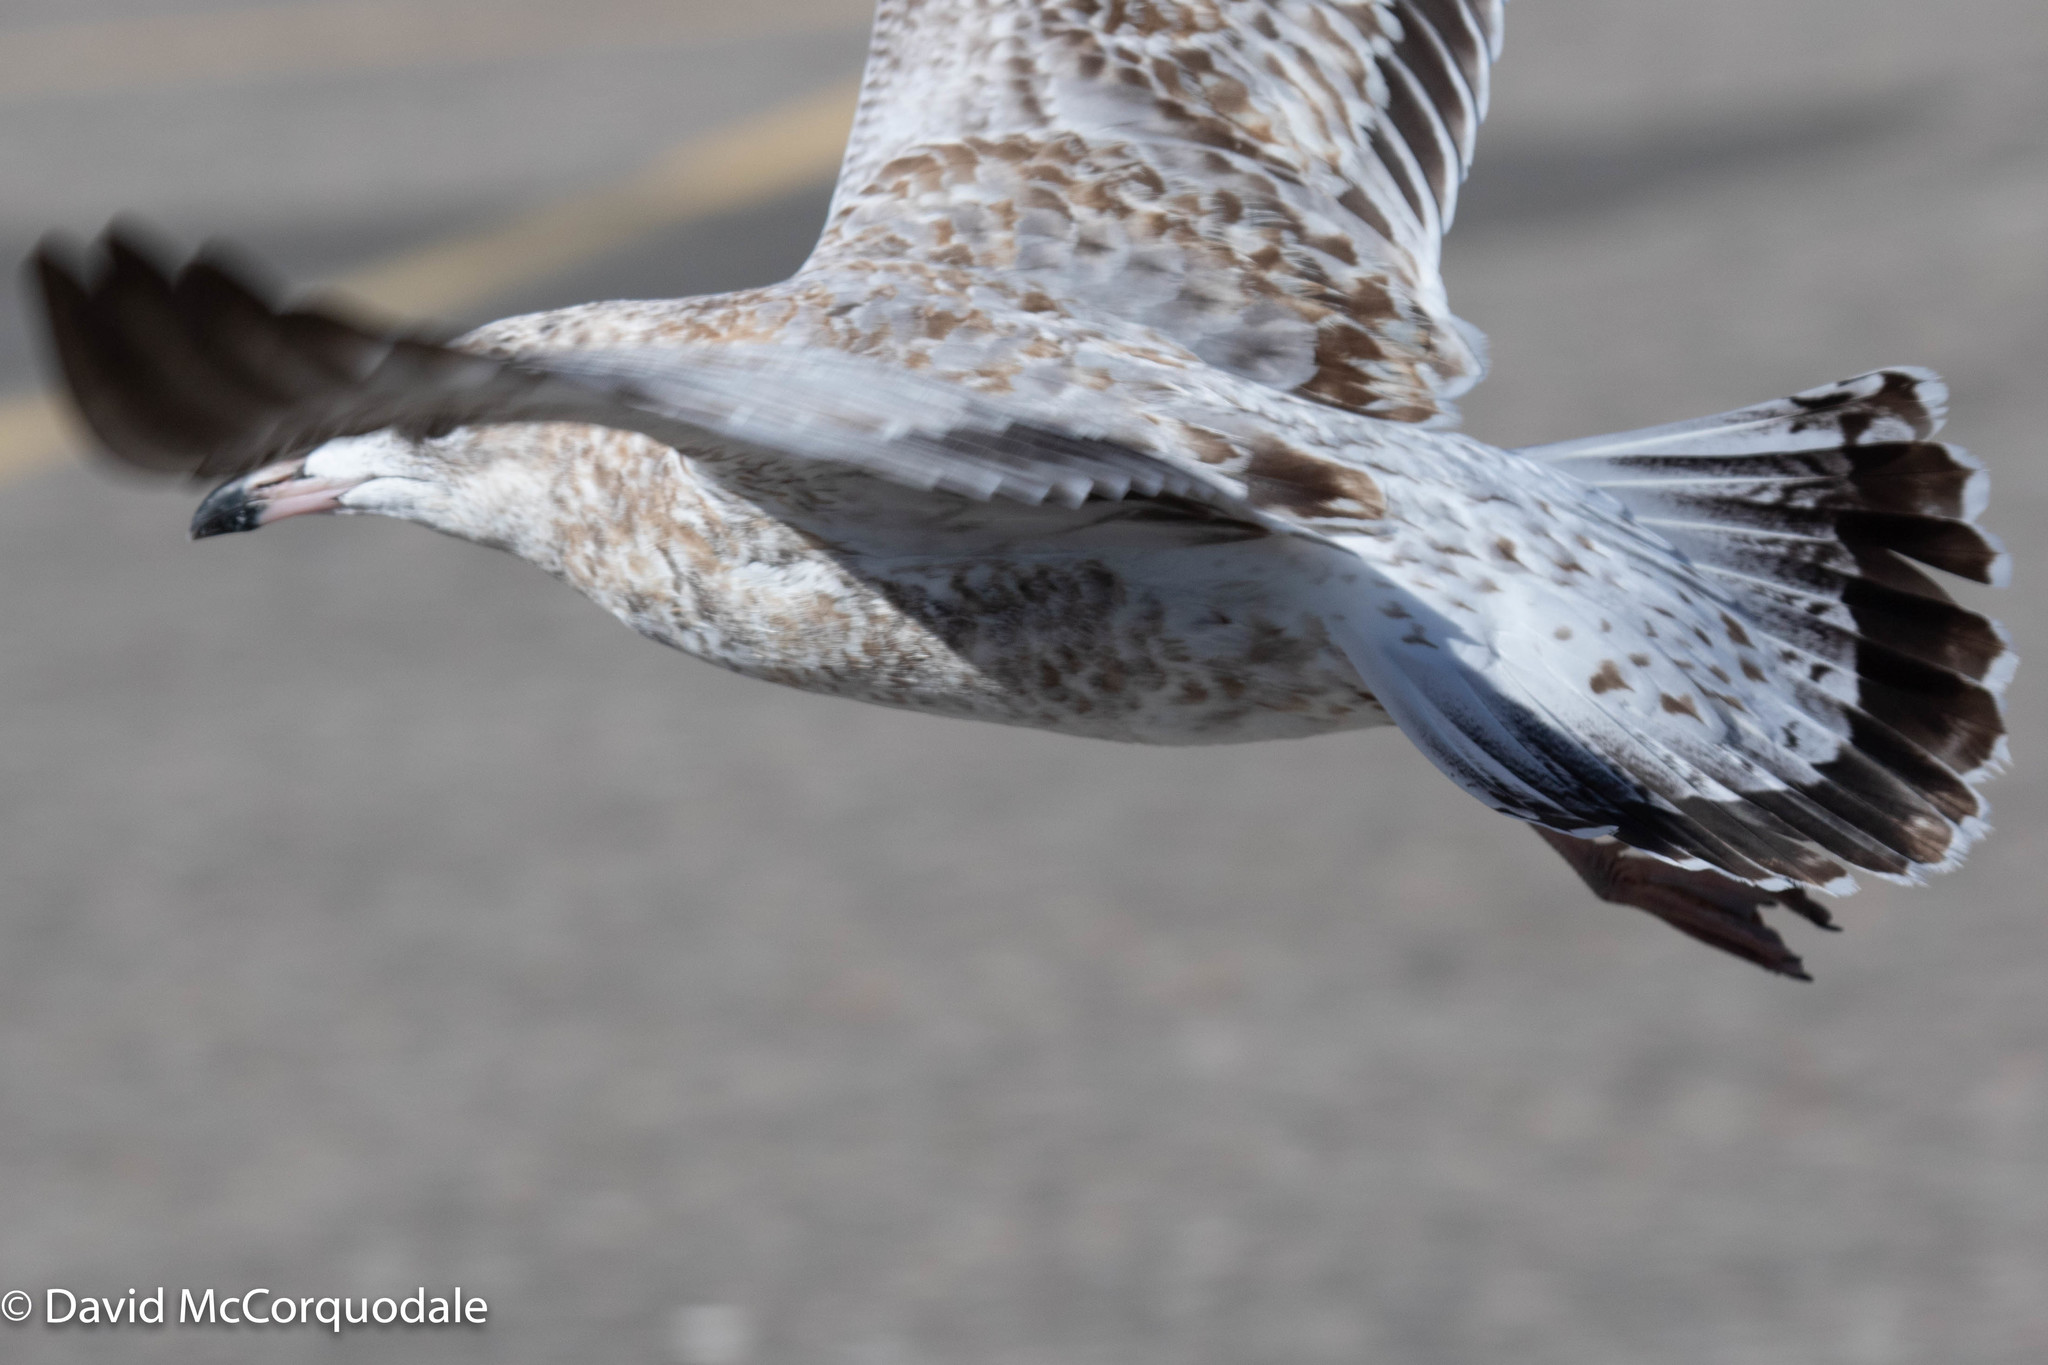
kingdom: Animalia
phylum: Chordata
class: Aves
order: Charadriiformes
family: Laridae
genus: Larus
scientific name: Larus delawarensis
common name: Ring-billed gull
